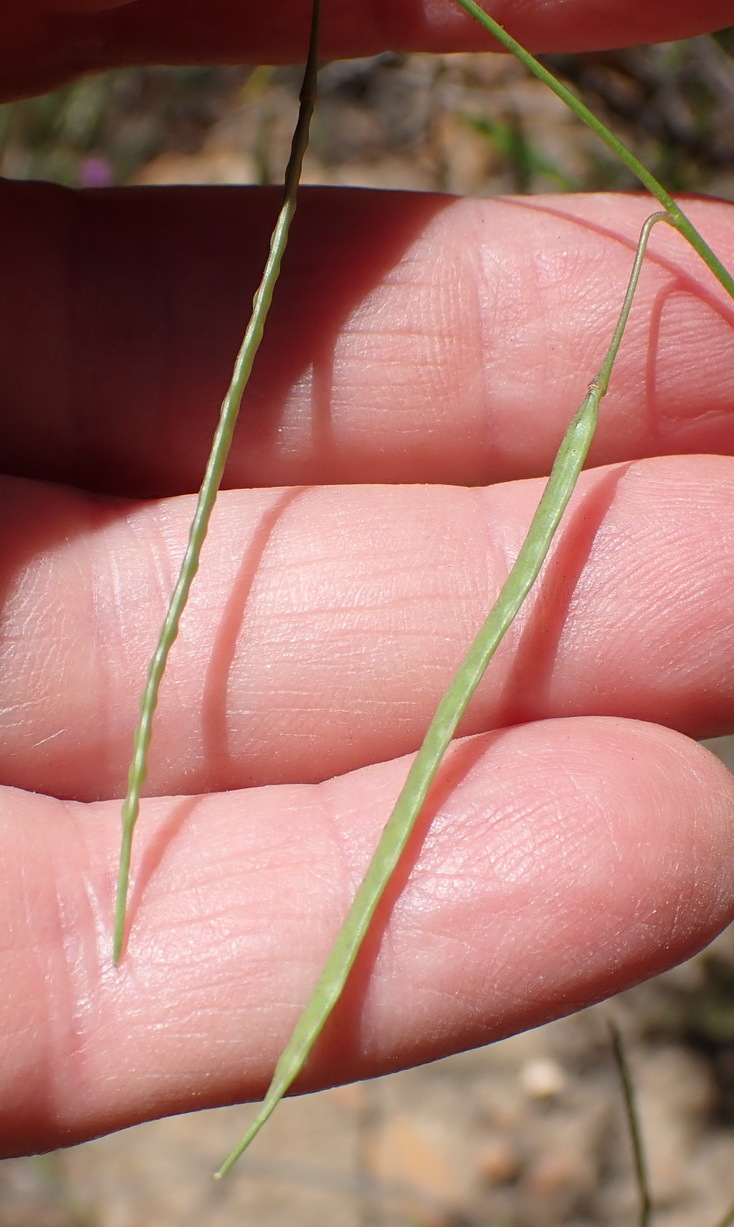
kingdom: Plantae
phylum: Tracheophyta
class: Magnoliopsida
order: Brassicales
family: Brassicaceae
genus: Heliophila
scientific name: Heliophila subulata
